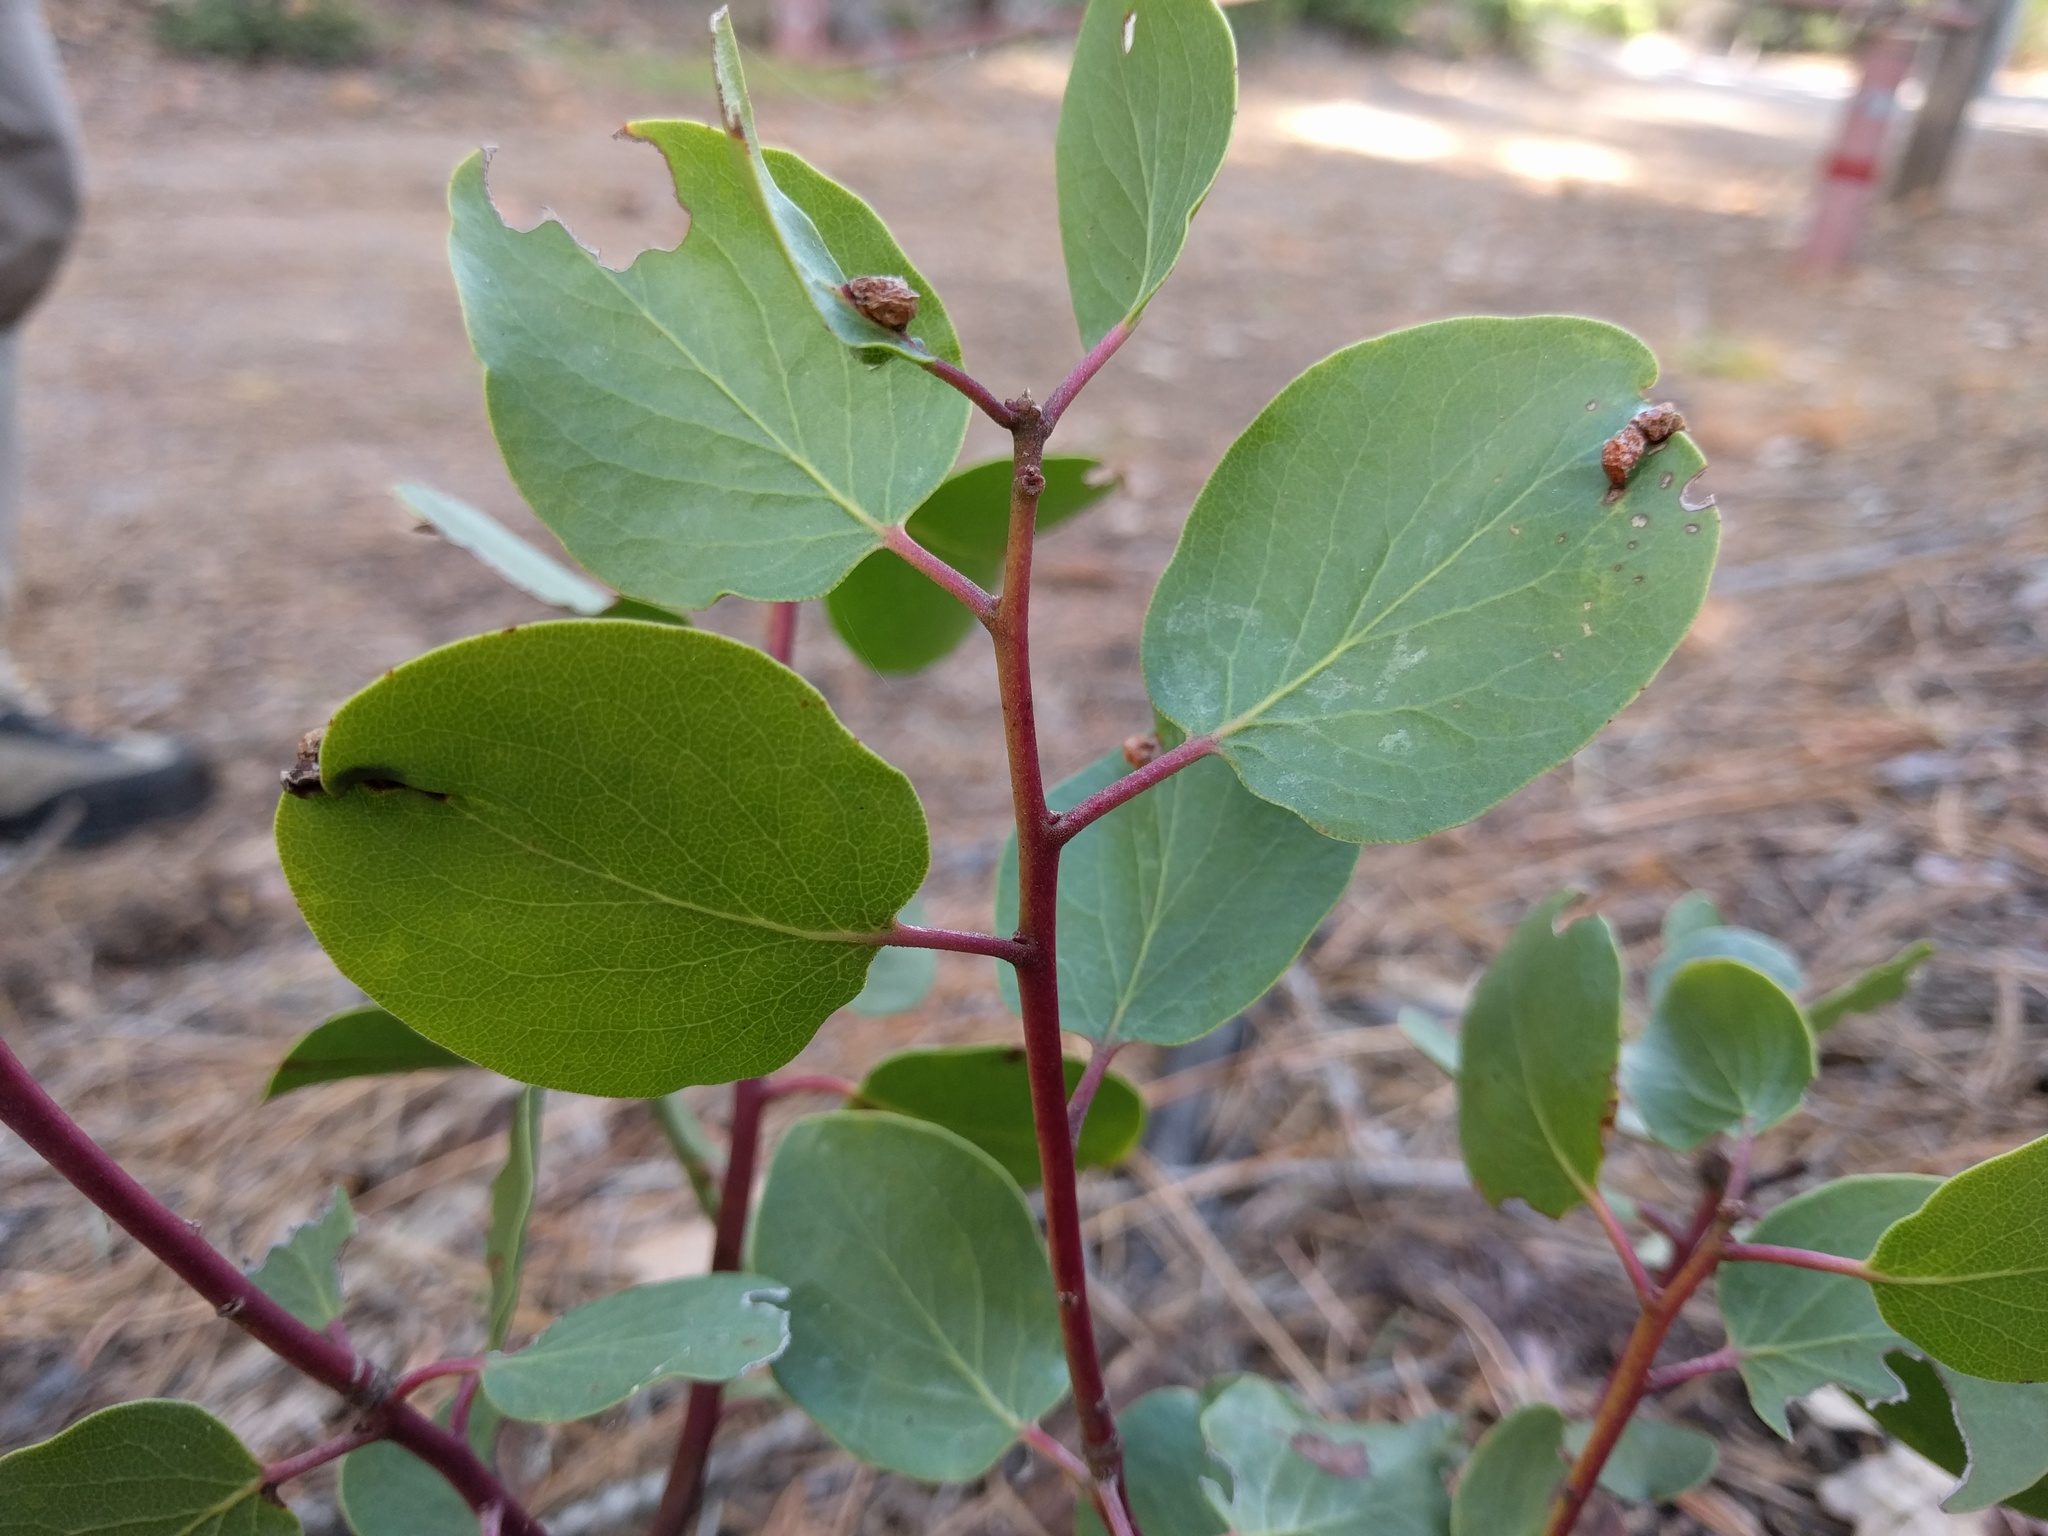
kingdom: Animalia
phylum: Arthropoda
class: Insecta
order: Hemiptera
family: Aphididae
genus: Tamalia
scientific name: Tamalia coweni
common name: Manzanita leafgall aphid
